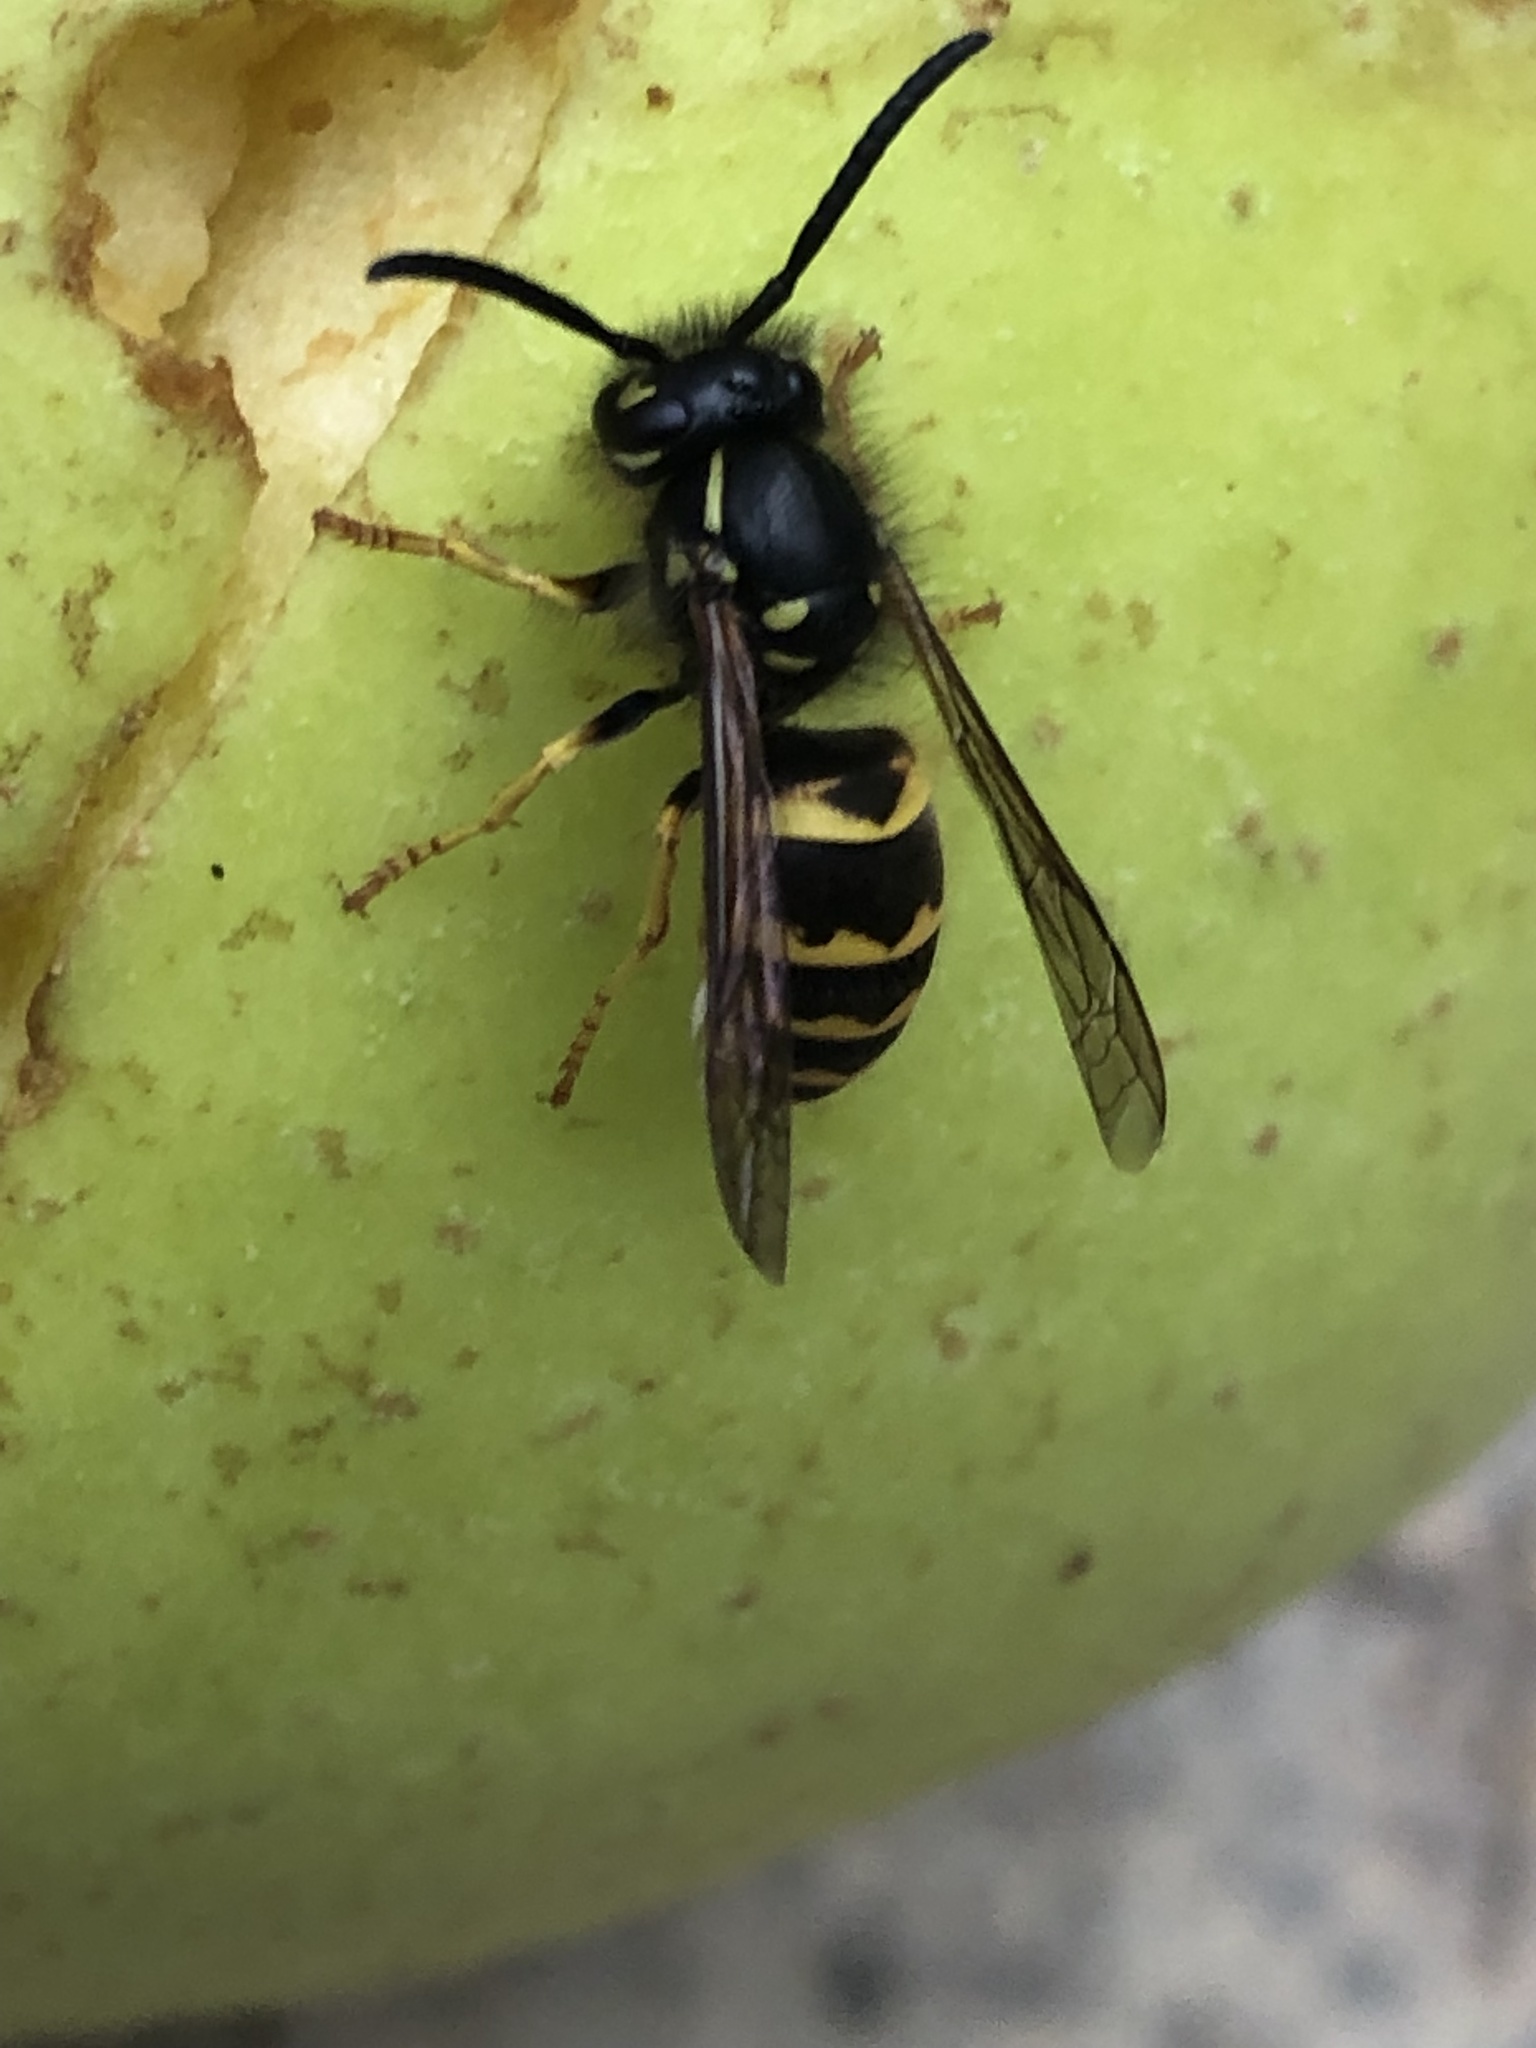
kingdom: Animalia
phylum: Arthropoda
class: Insecta
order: Hymenoptera
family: Vespidae
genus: Vespula
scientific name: Vespula alascensis
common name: Alaska yellowjacket
